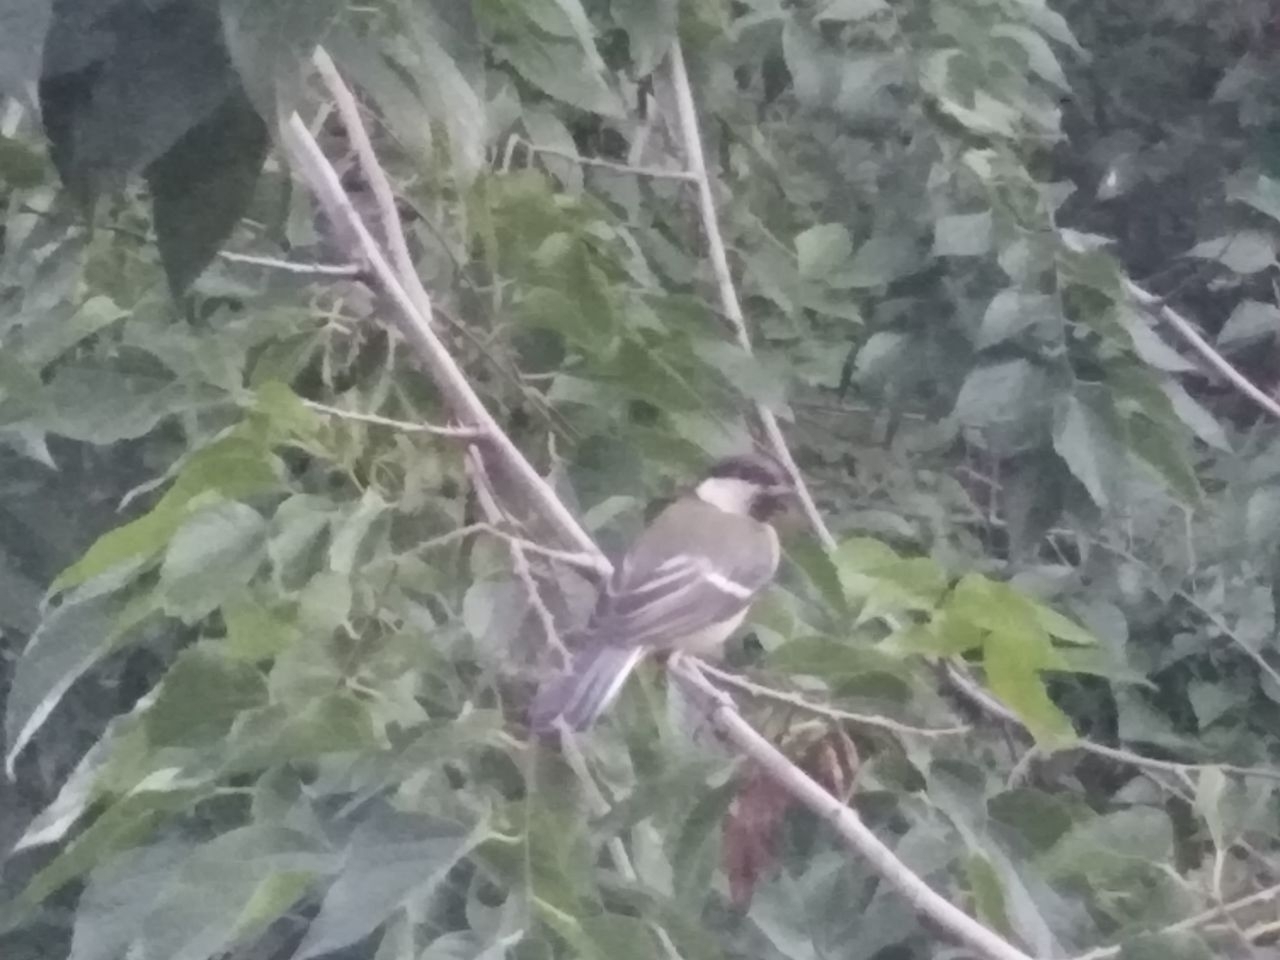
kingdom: Animalia
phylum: Chordata
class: Aves
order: Passeriformes
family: Paridae
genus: Parus
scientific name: Parus major
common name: Great tit
